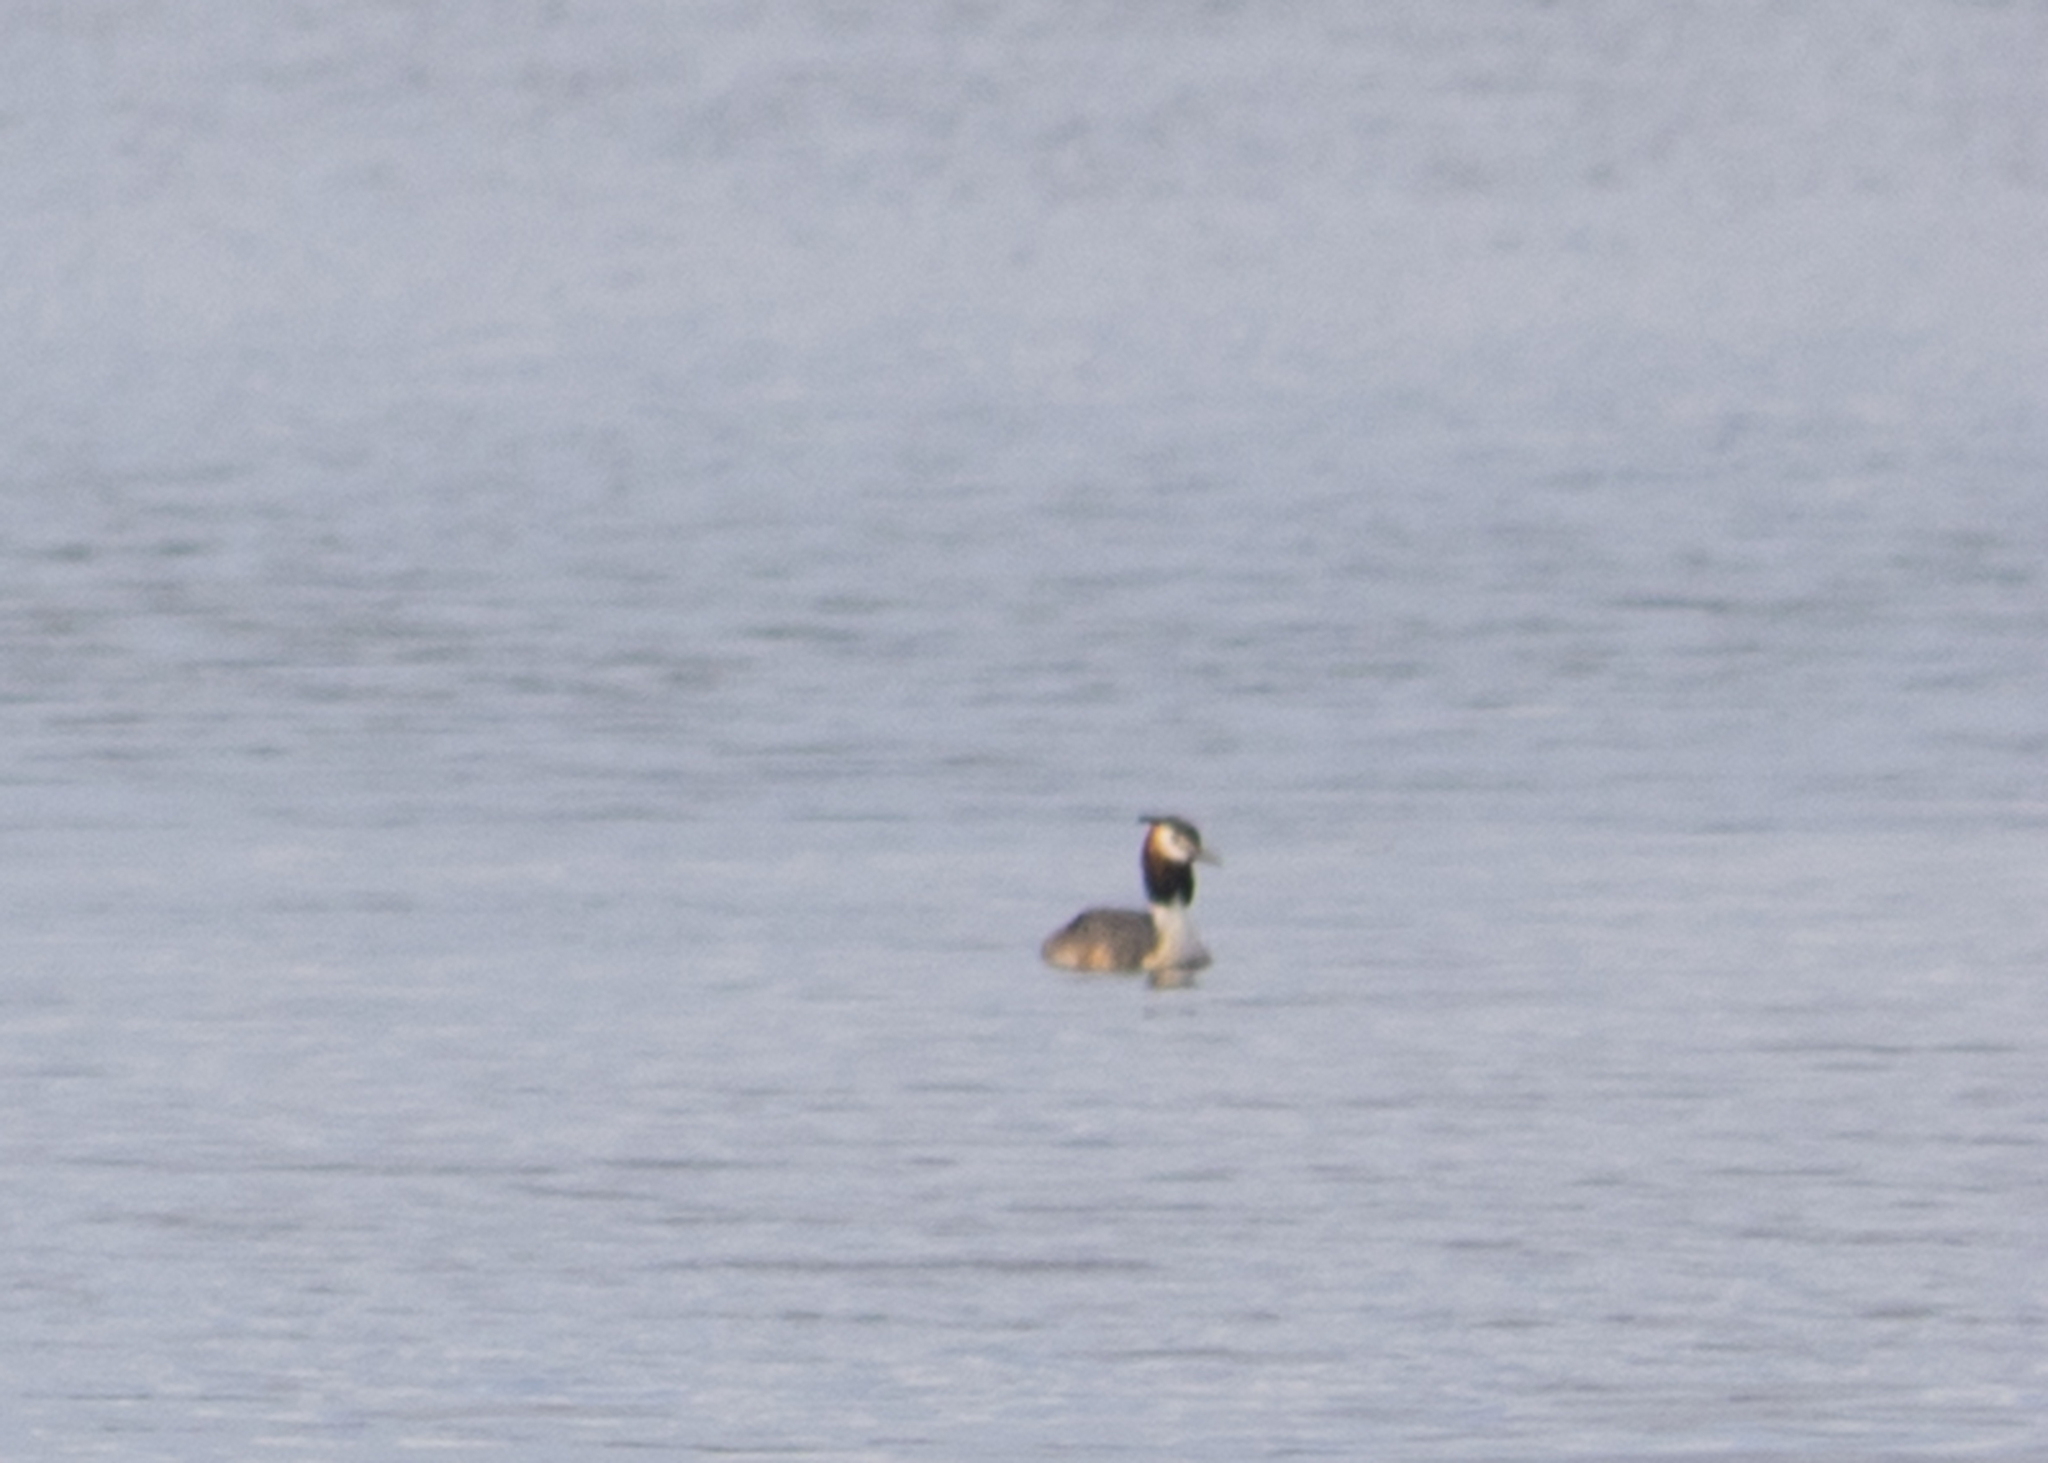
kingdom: Animalia
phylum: Chordata
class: Aves
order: Podicipediformes
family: Podicipedidae
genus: Podiceps
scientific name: Podiceps cristatus
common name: Great crested grebe
